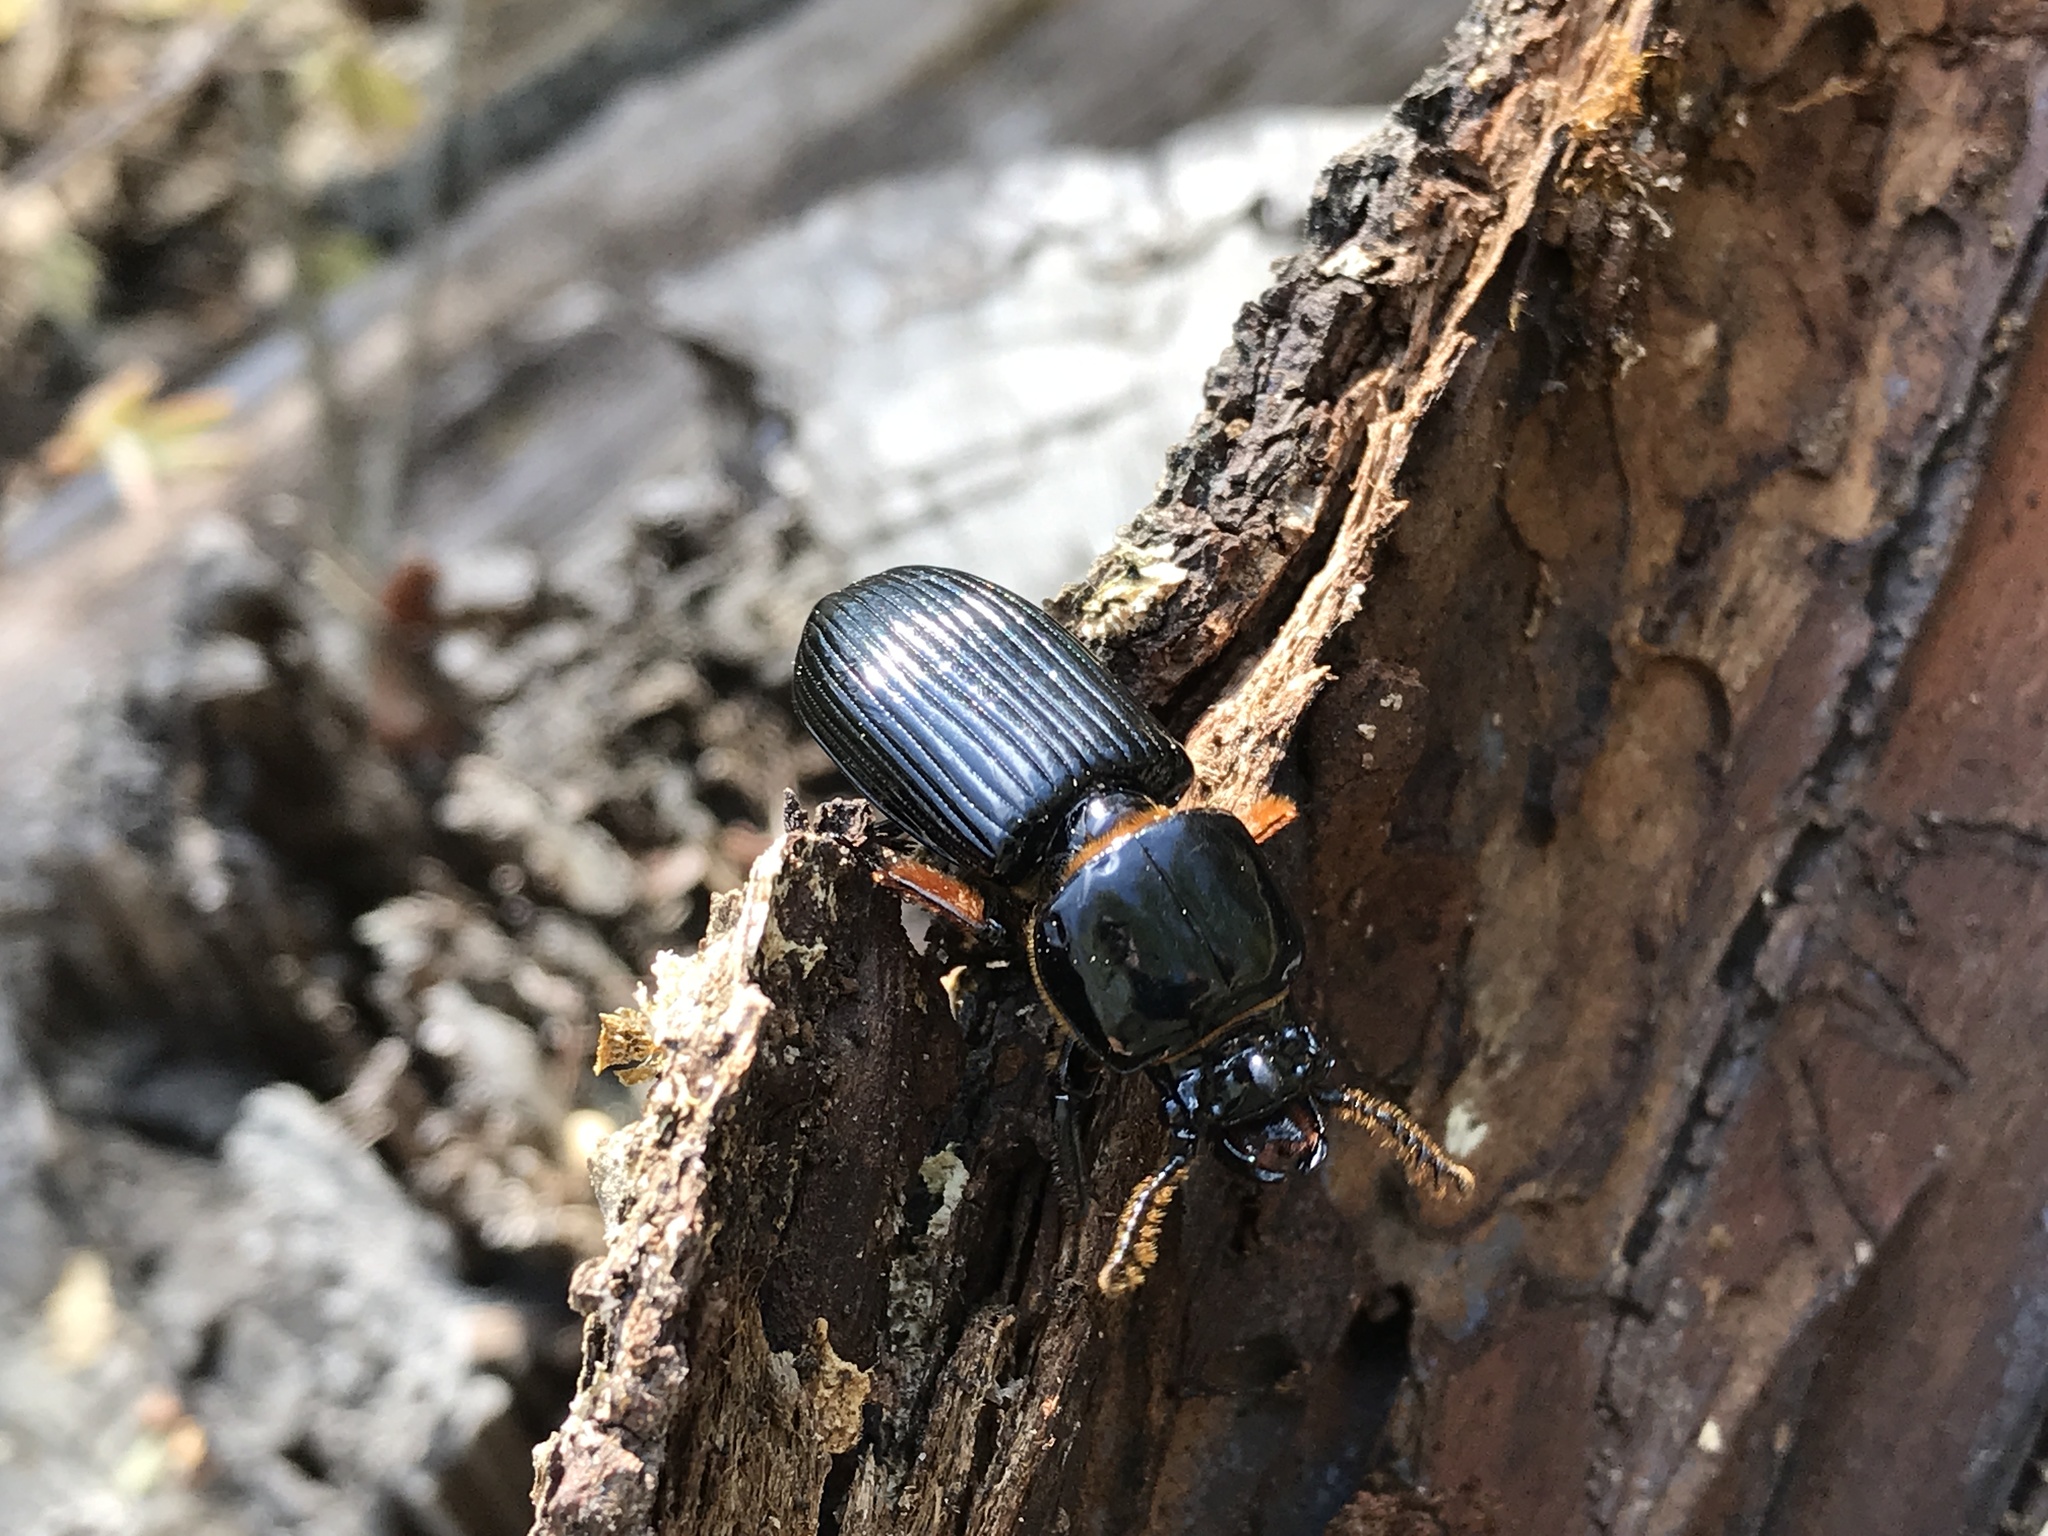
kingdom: Animalia
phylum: Arthropoda
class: Insecta
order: Coleoptera
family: Passalidae
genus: Odontotaenius
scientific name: Odontotaenius disjunctus
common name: Patent leather beetle
